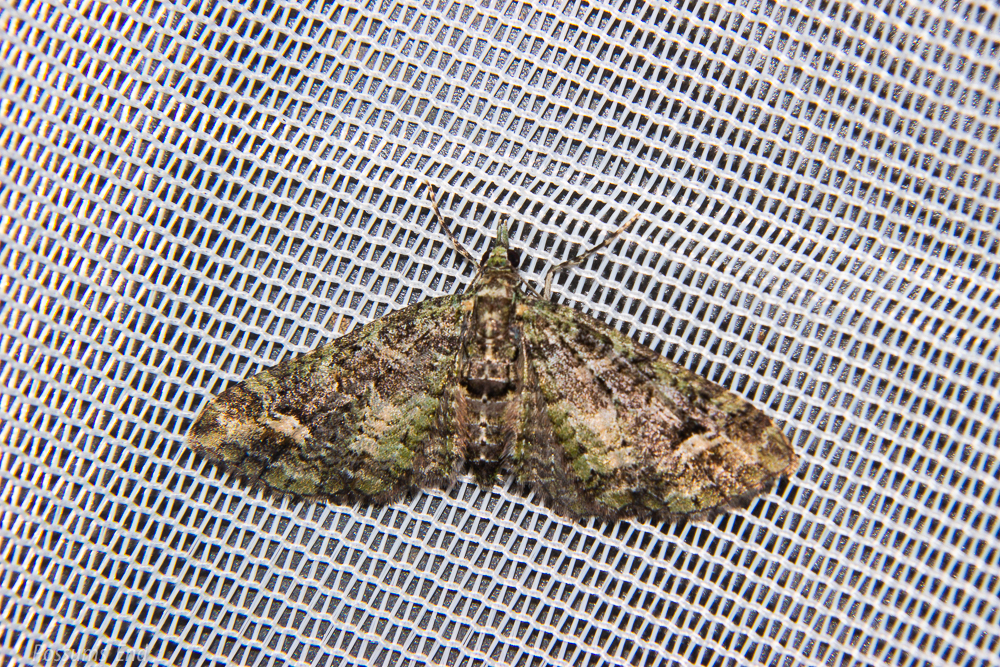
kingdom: Animalia
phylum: Arthropoda
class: Insecta
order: Lepidoptera
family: Geometridae
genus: Idaea
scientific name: Idaea mutanda
